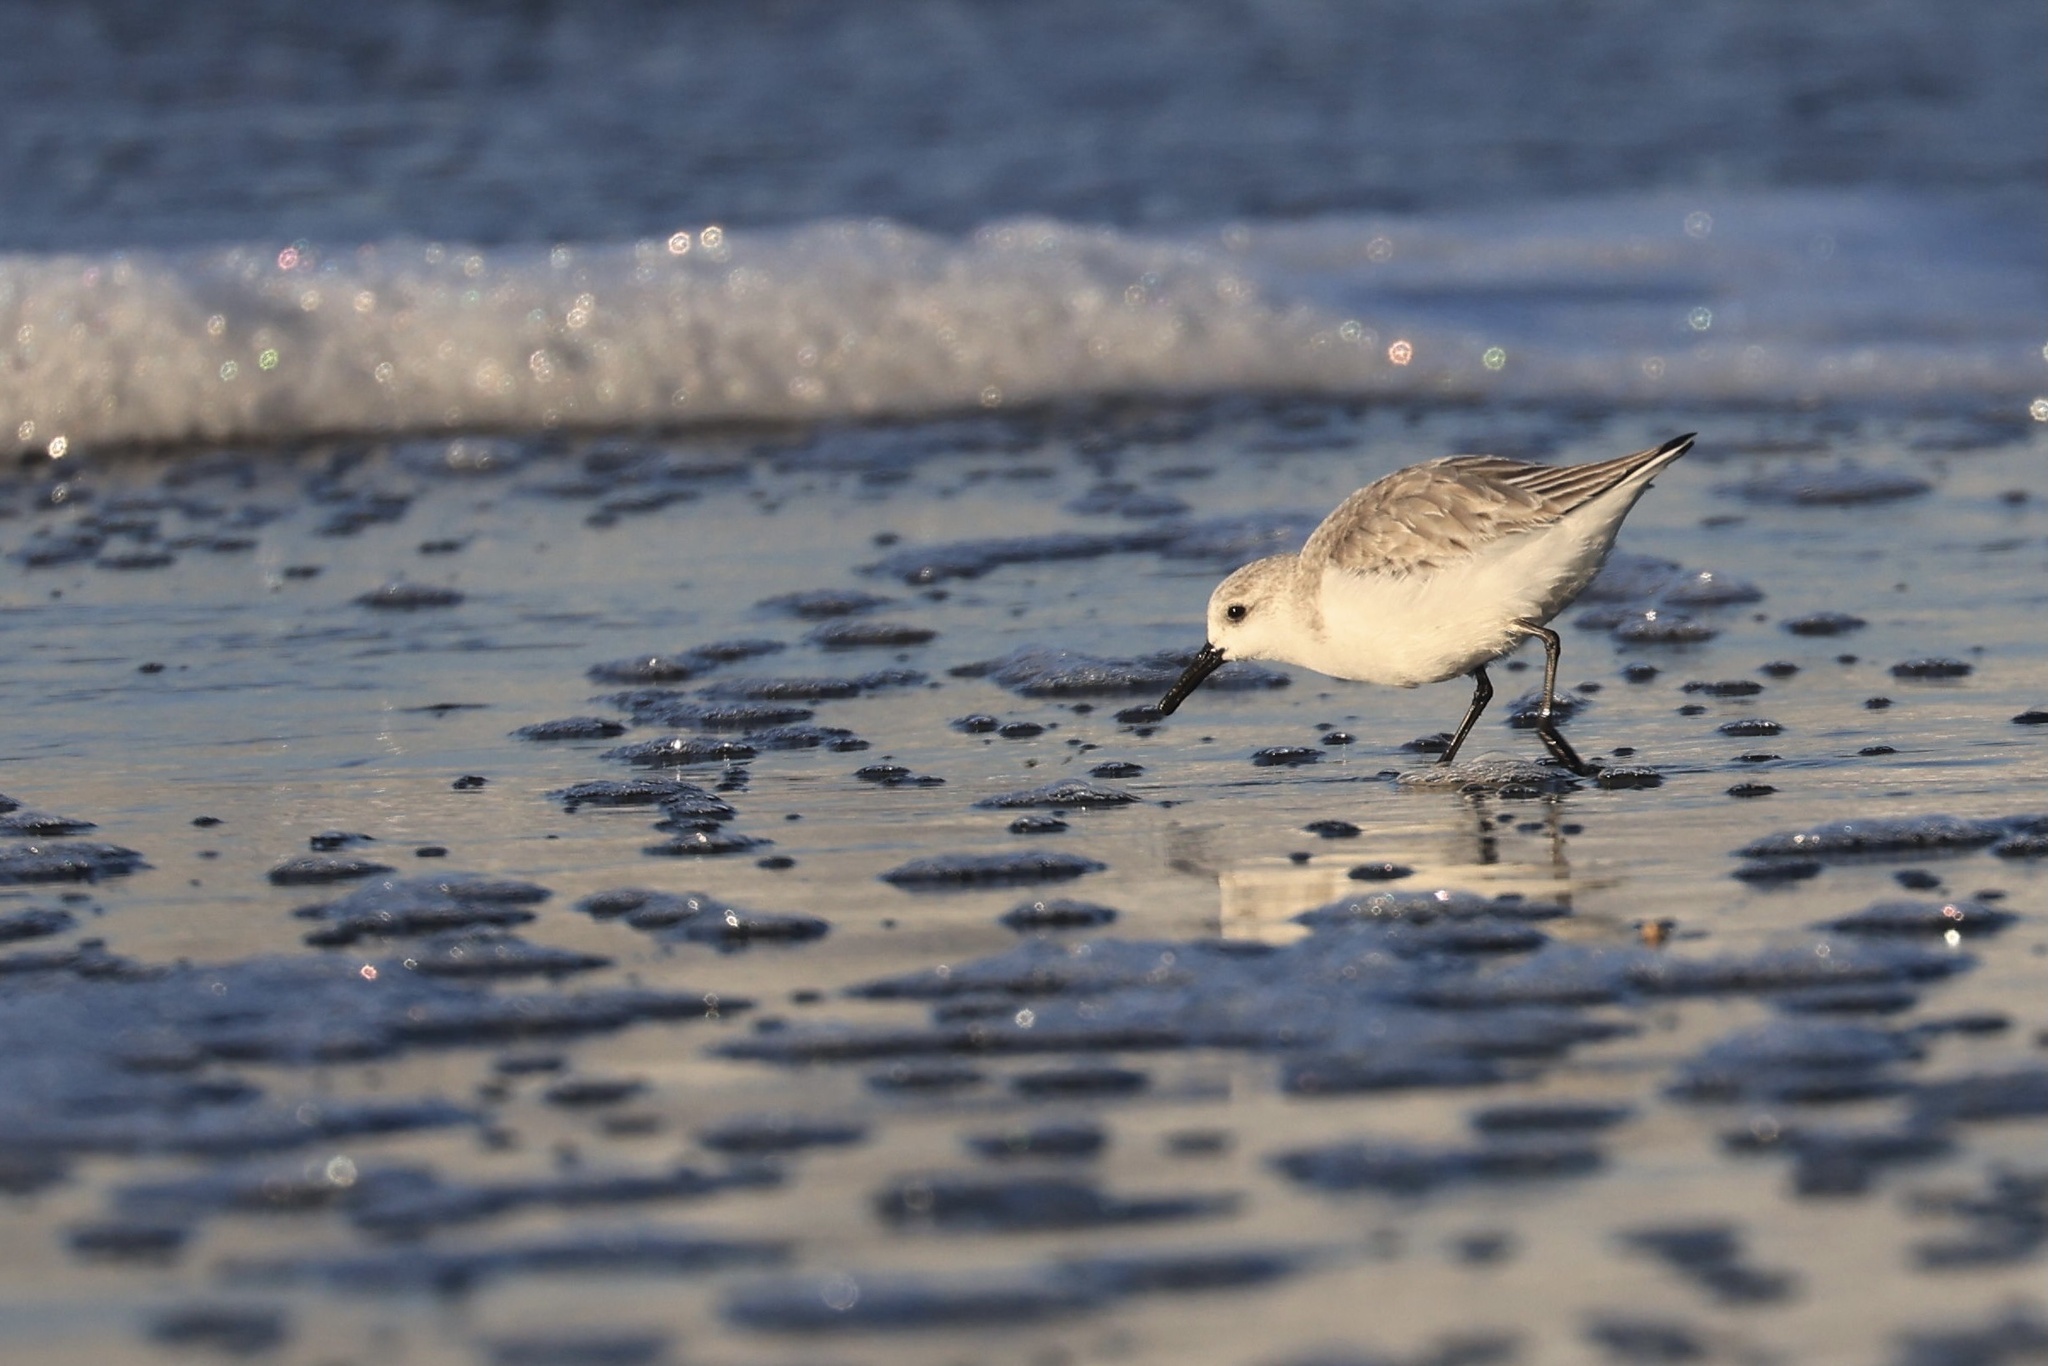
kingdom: Animalia
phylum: Chordata
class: Aves
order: Charadriiformes
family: Scolopacidae
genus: Calidris
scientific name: Calidris alba
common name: Sanderling
